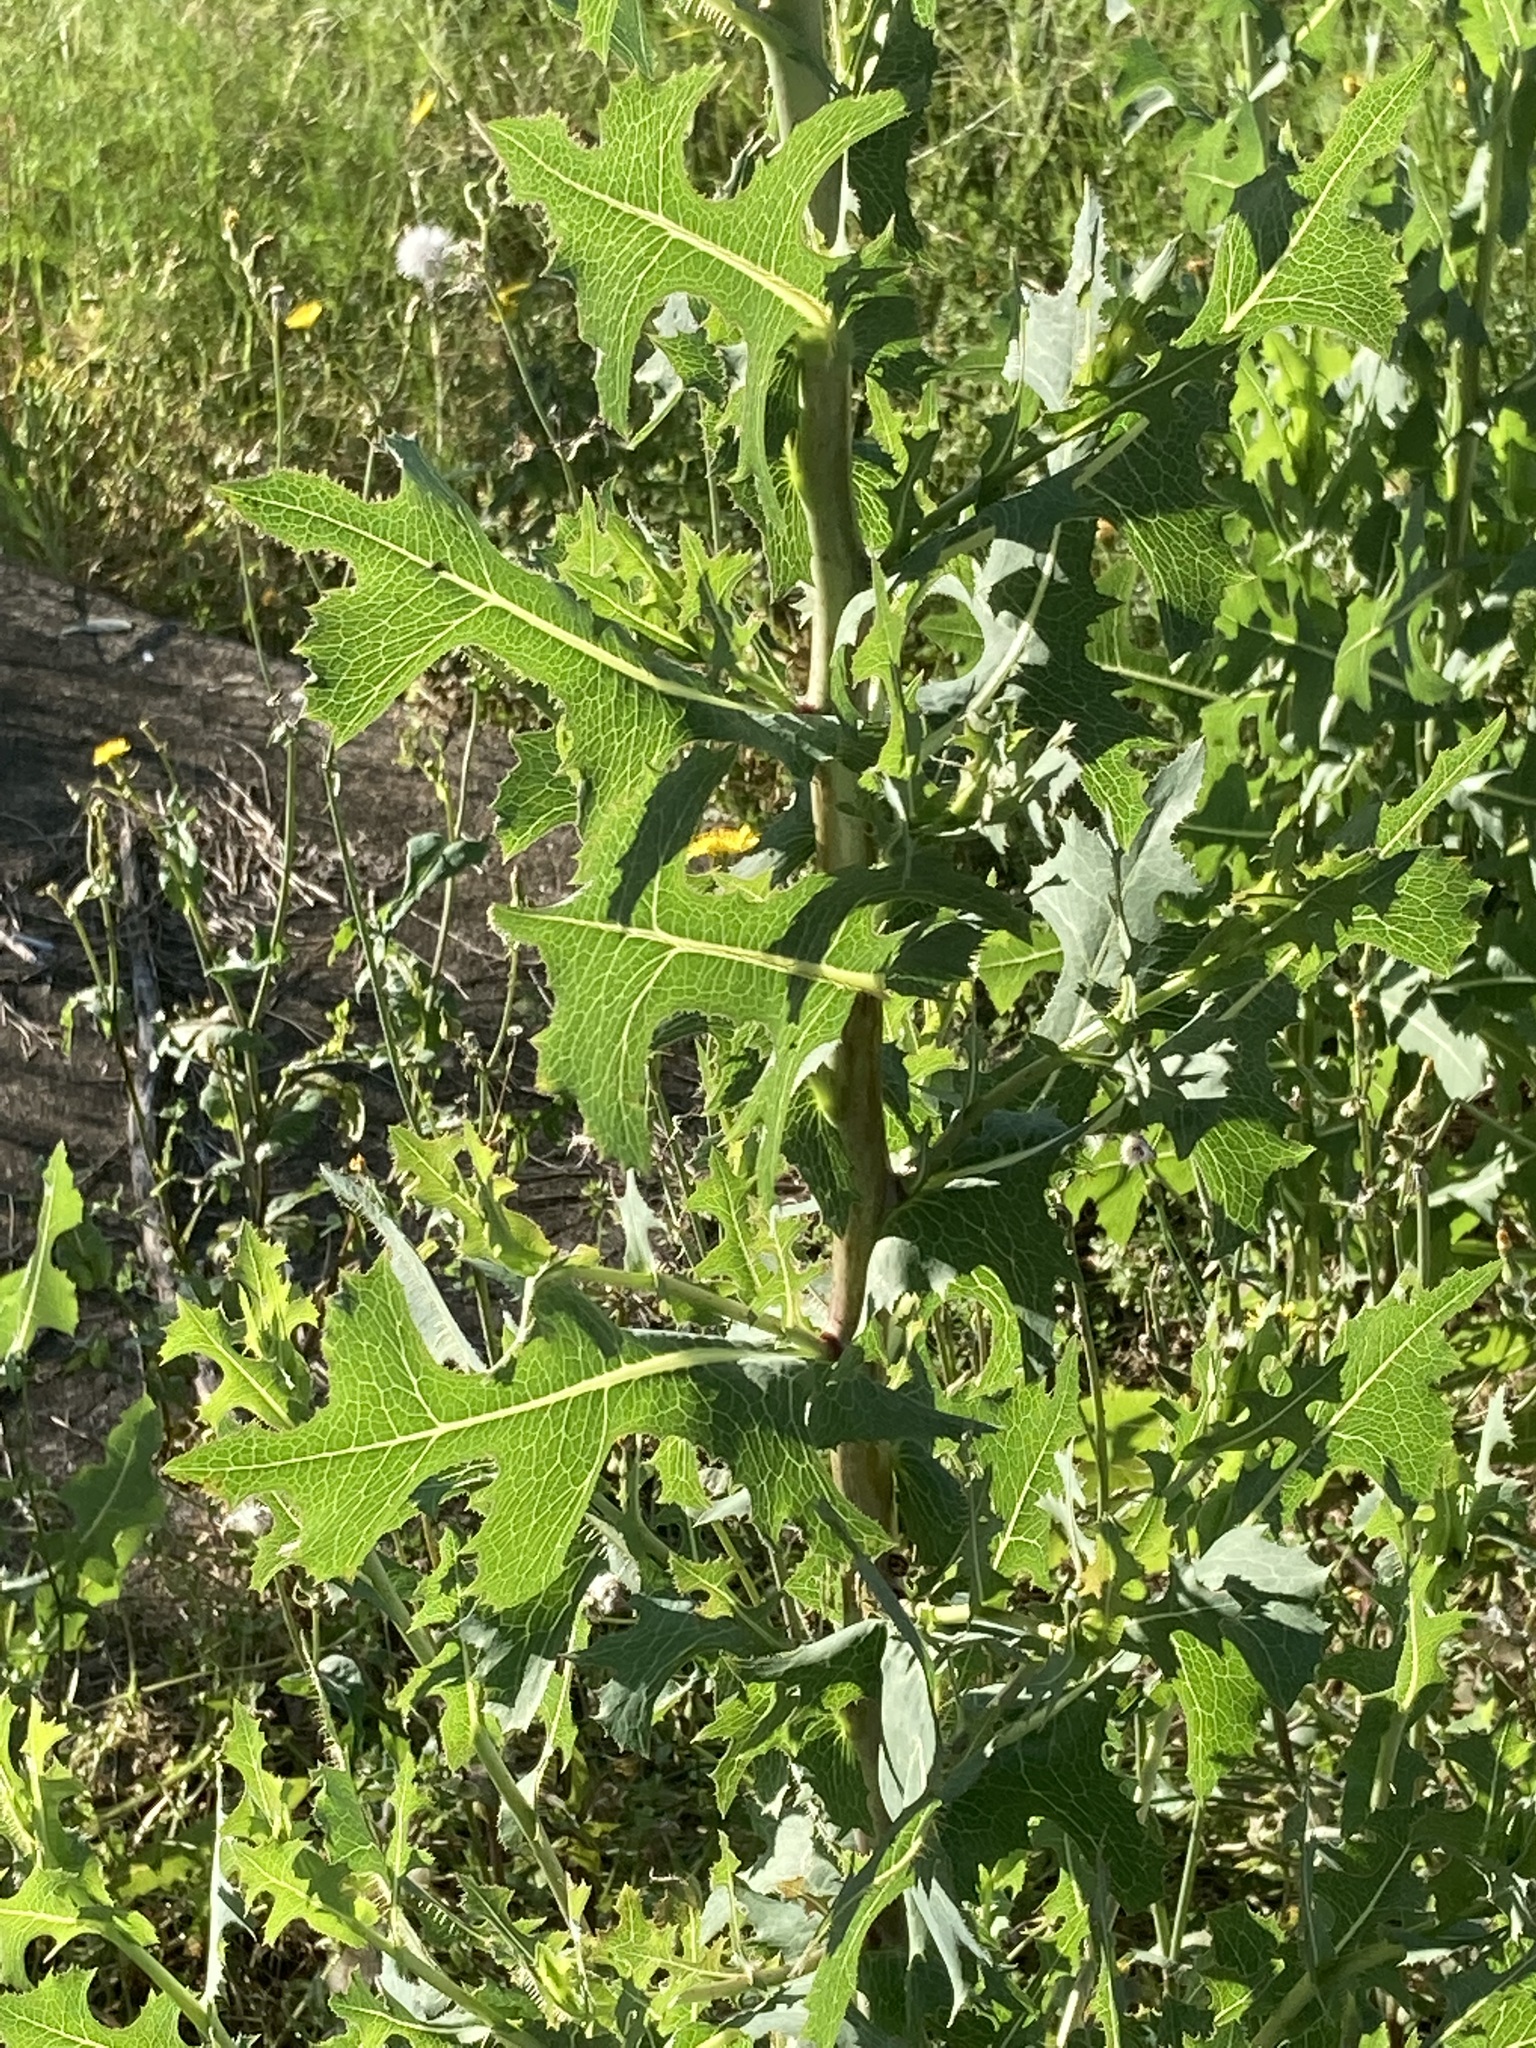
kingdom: Plantae
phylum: Tracheophyta
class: Magnoliopsida
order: Asterales
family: Asteraceae
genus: Lactuca
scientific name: Lactuca serriola
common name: Prickly lettuce
